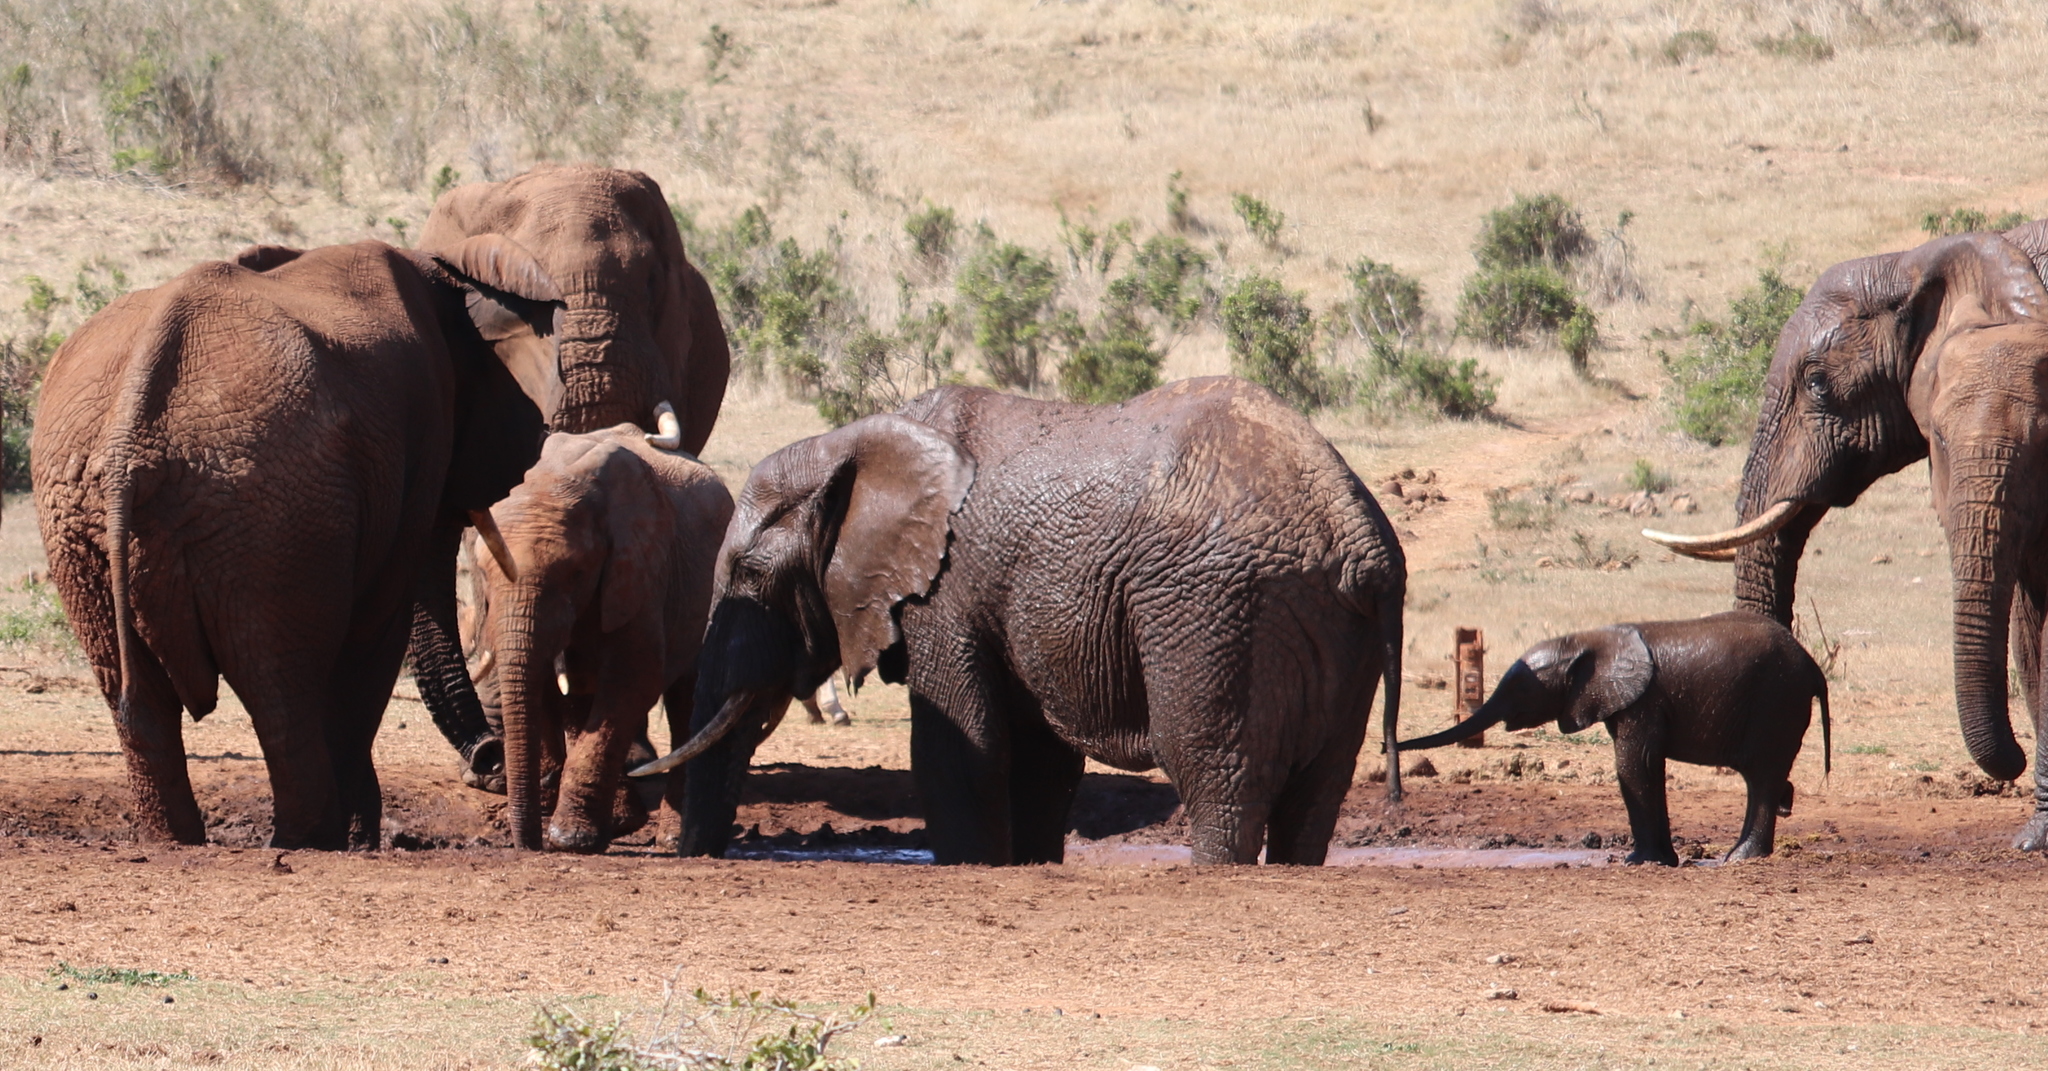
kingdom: Animalia
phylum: Chordata
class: Mammalia
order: Proboscidea
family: Elephantidae
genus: Loxodonta
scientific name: Loxodonta africana
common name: African elephant
